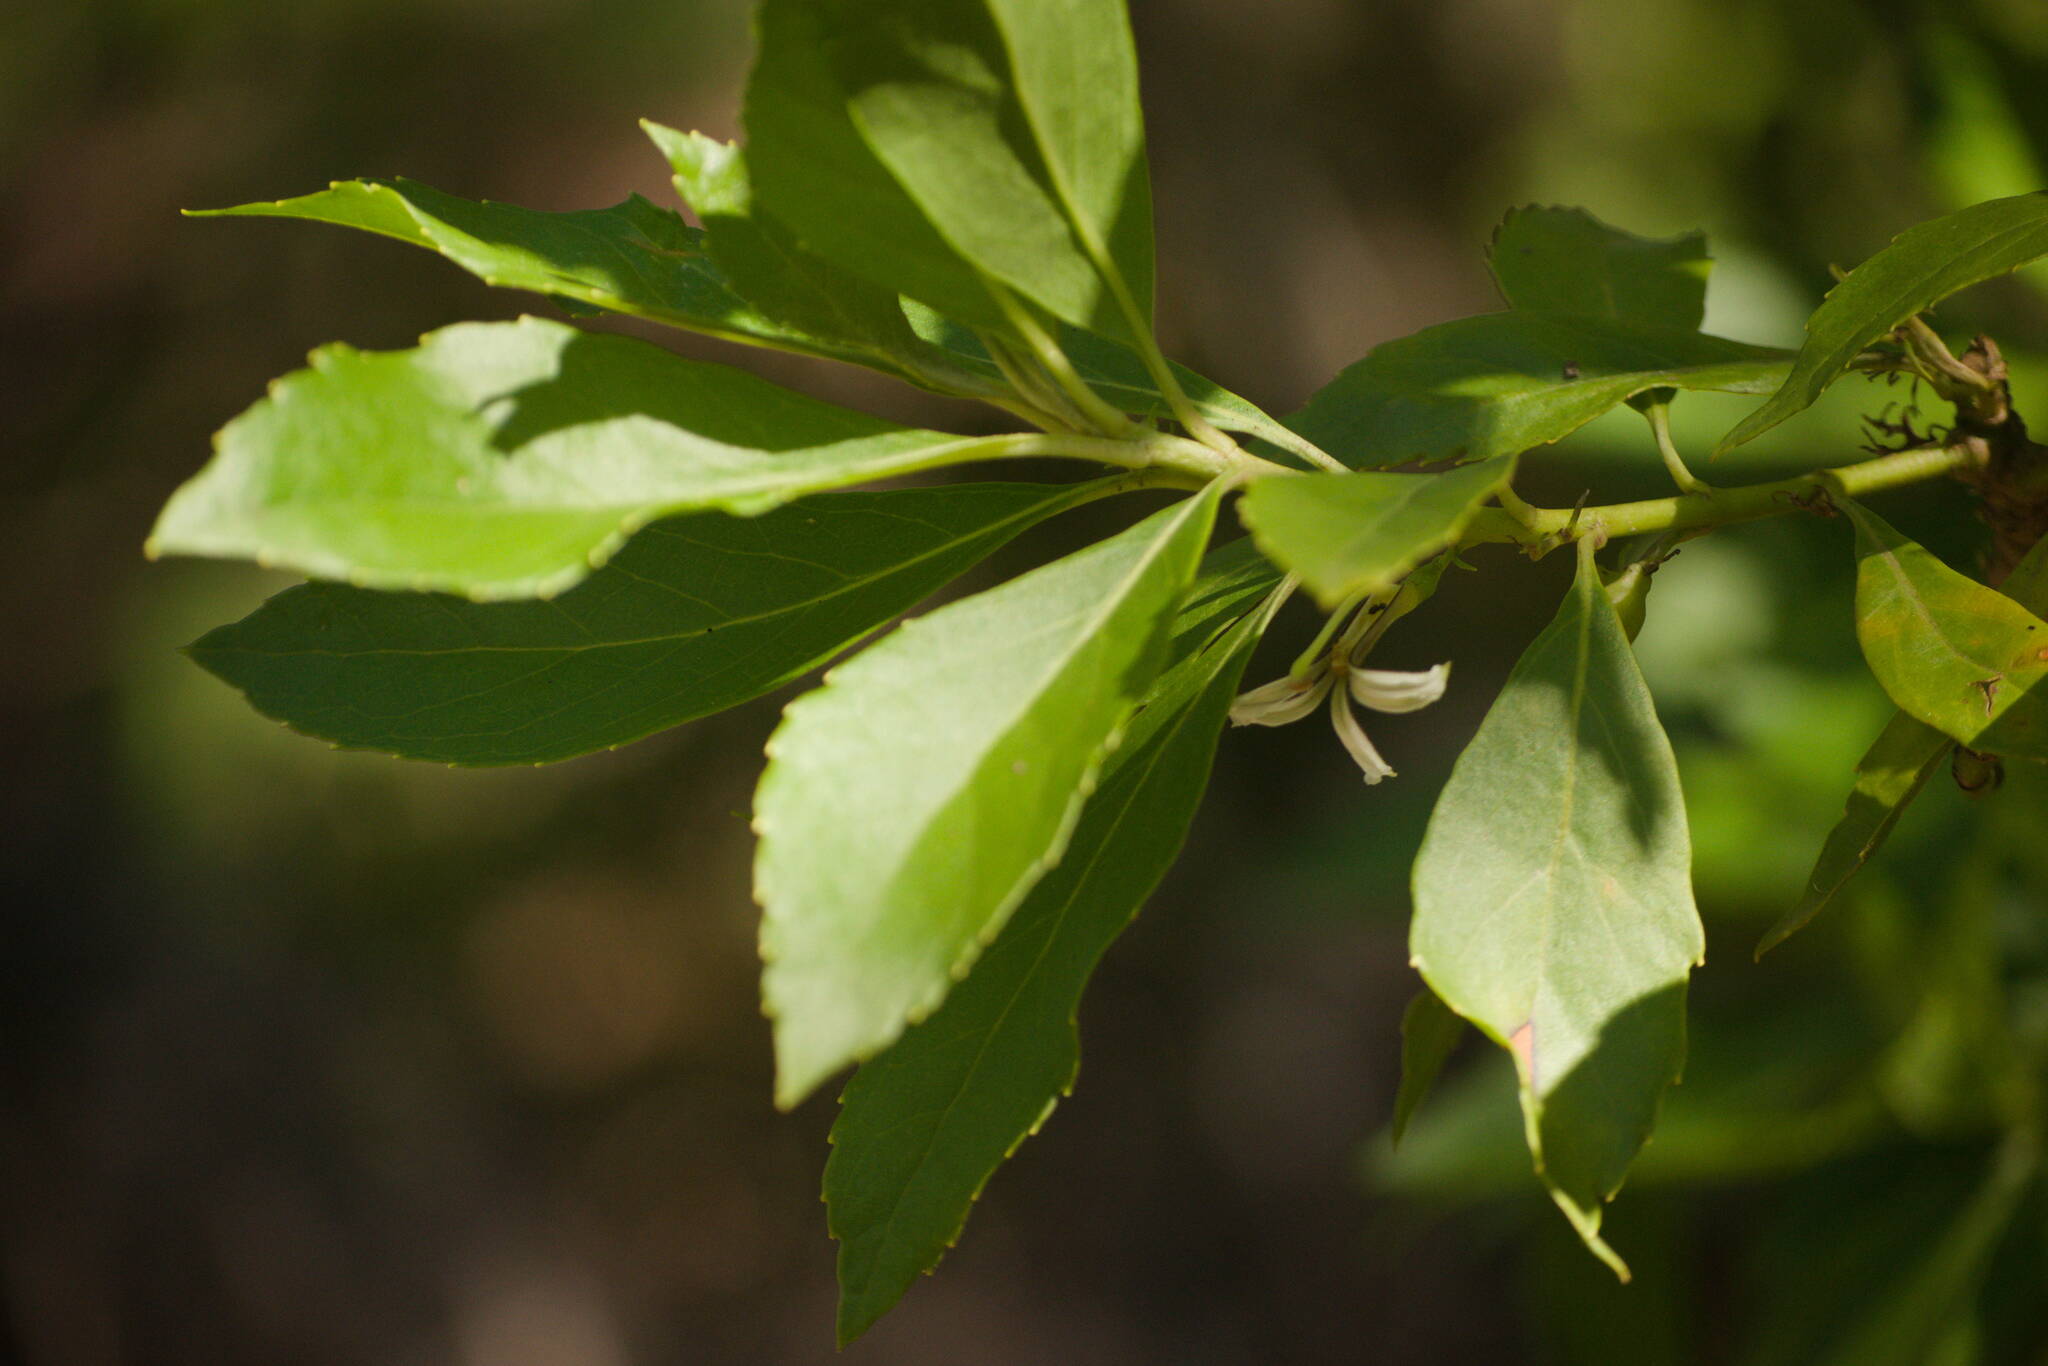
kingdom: Plantae
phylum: Tracheophyta
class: Magnoliopsida
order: Asterales
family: Goodeniaceae
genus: Scaevola
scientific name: Scaevola chamissoniana
